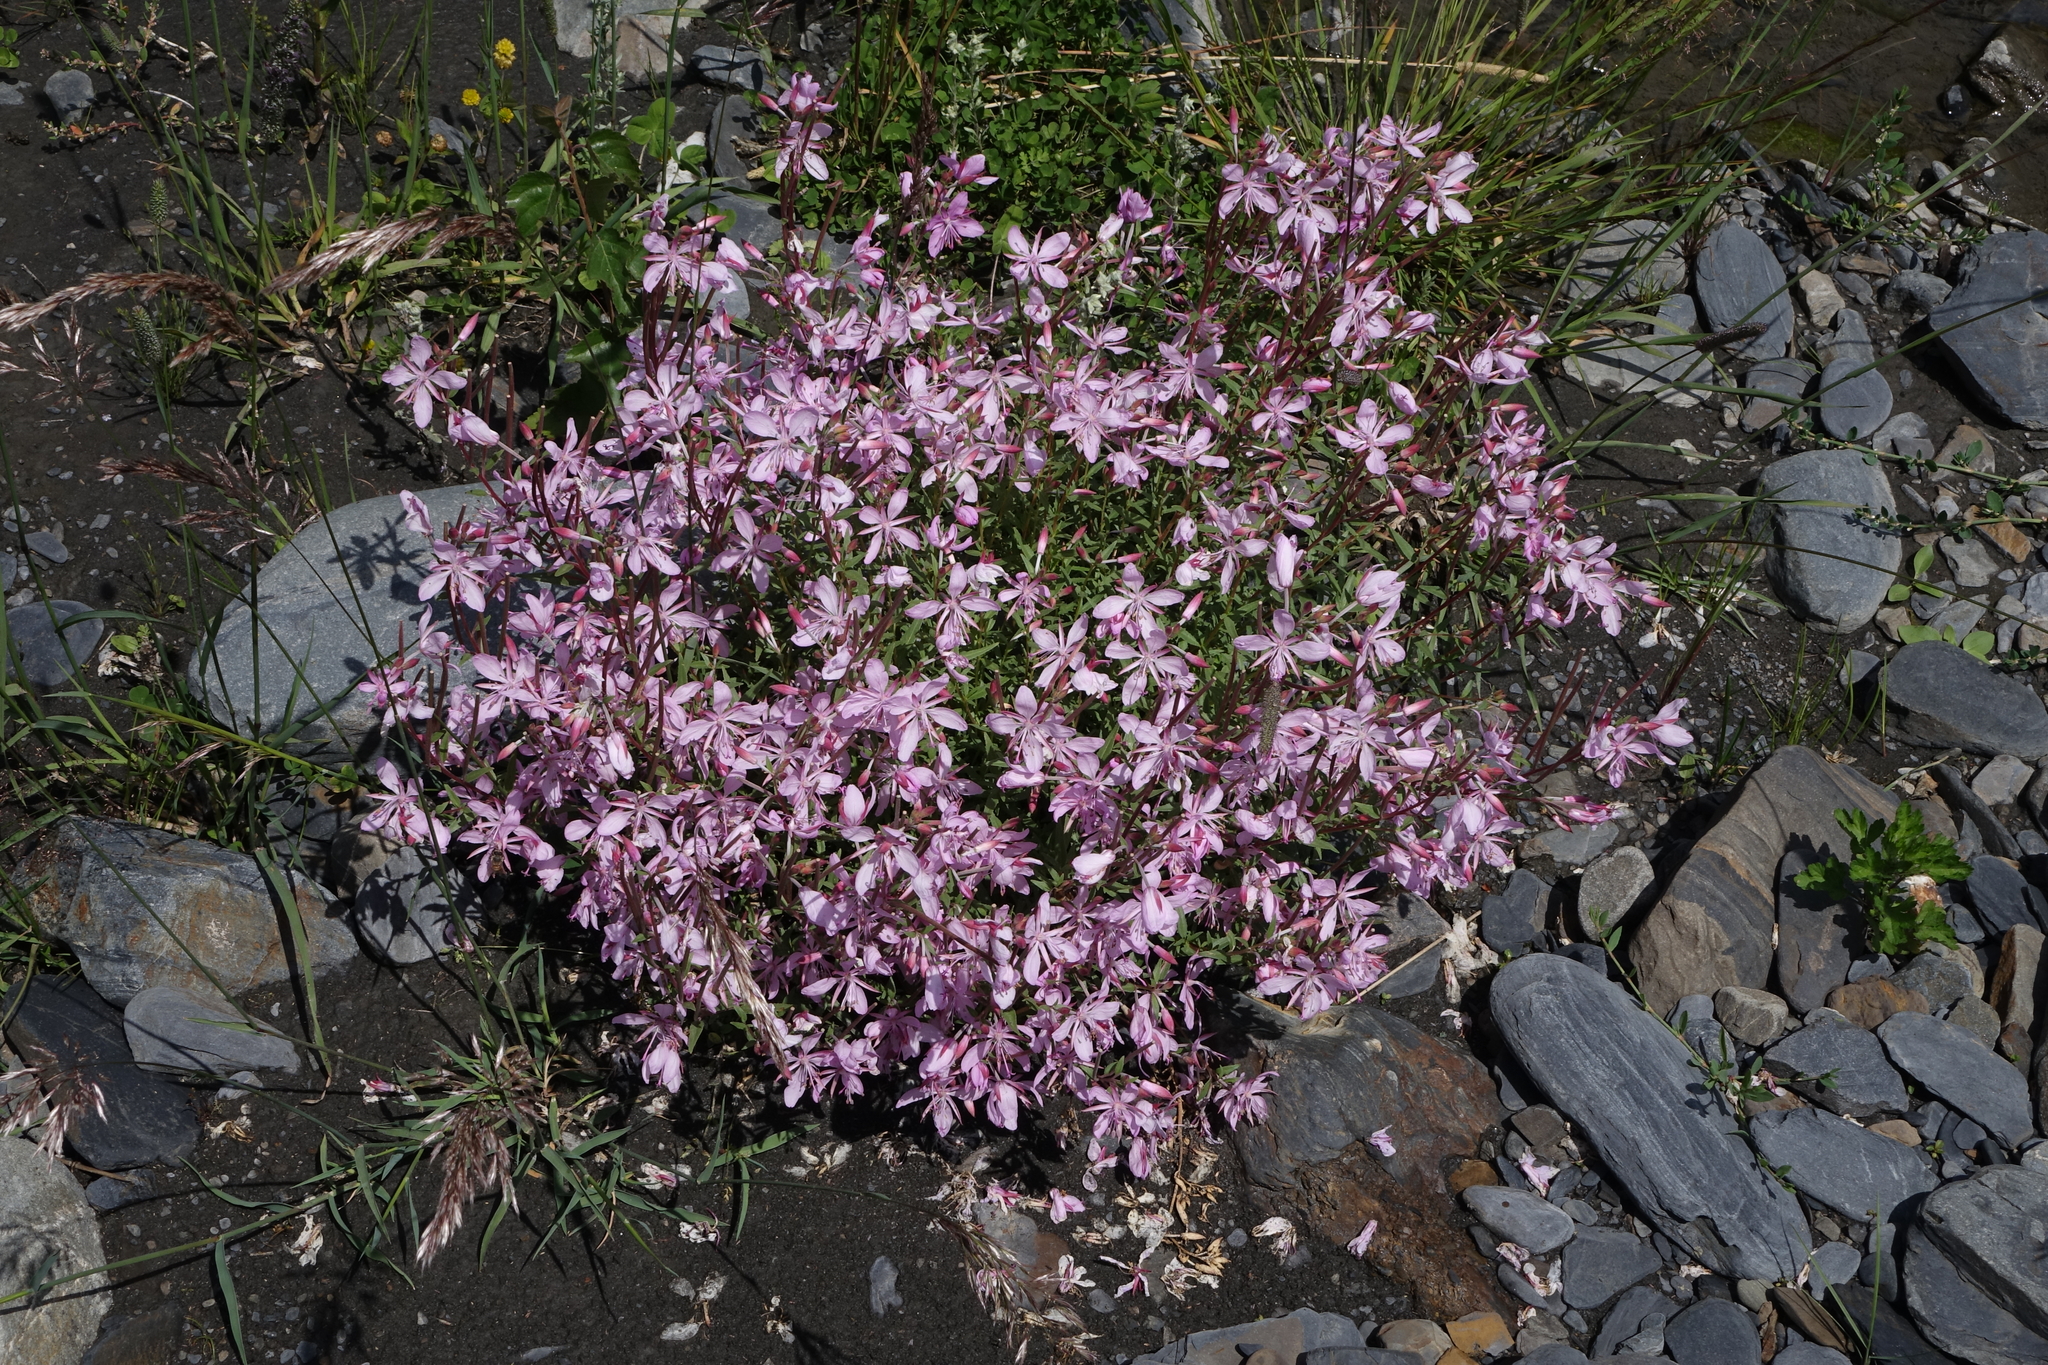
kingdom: Plantae
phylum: Tracheophyta
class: Magnoliopsida
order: Myrtales
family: Onagraceae
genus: Chamaenerion
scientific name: Chamaenerion colchicum
